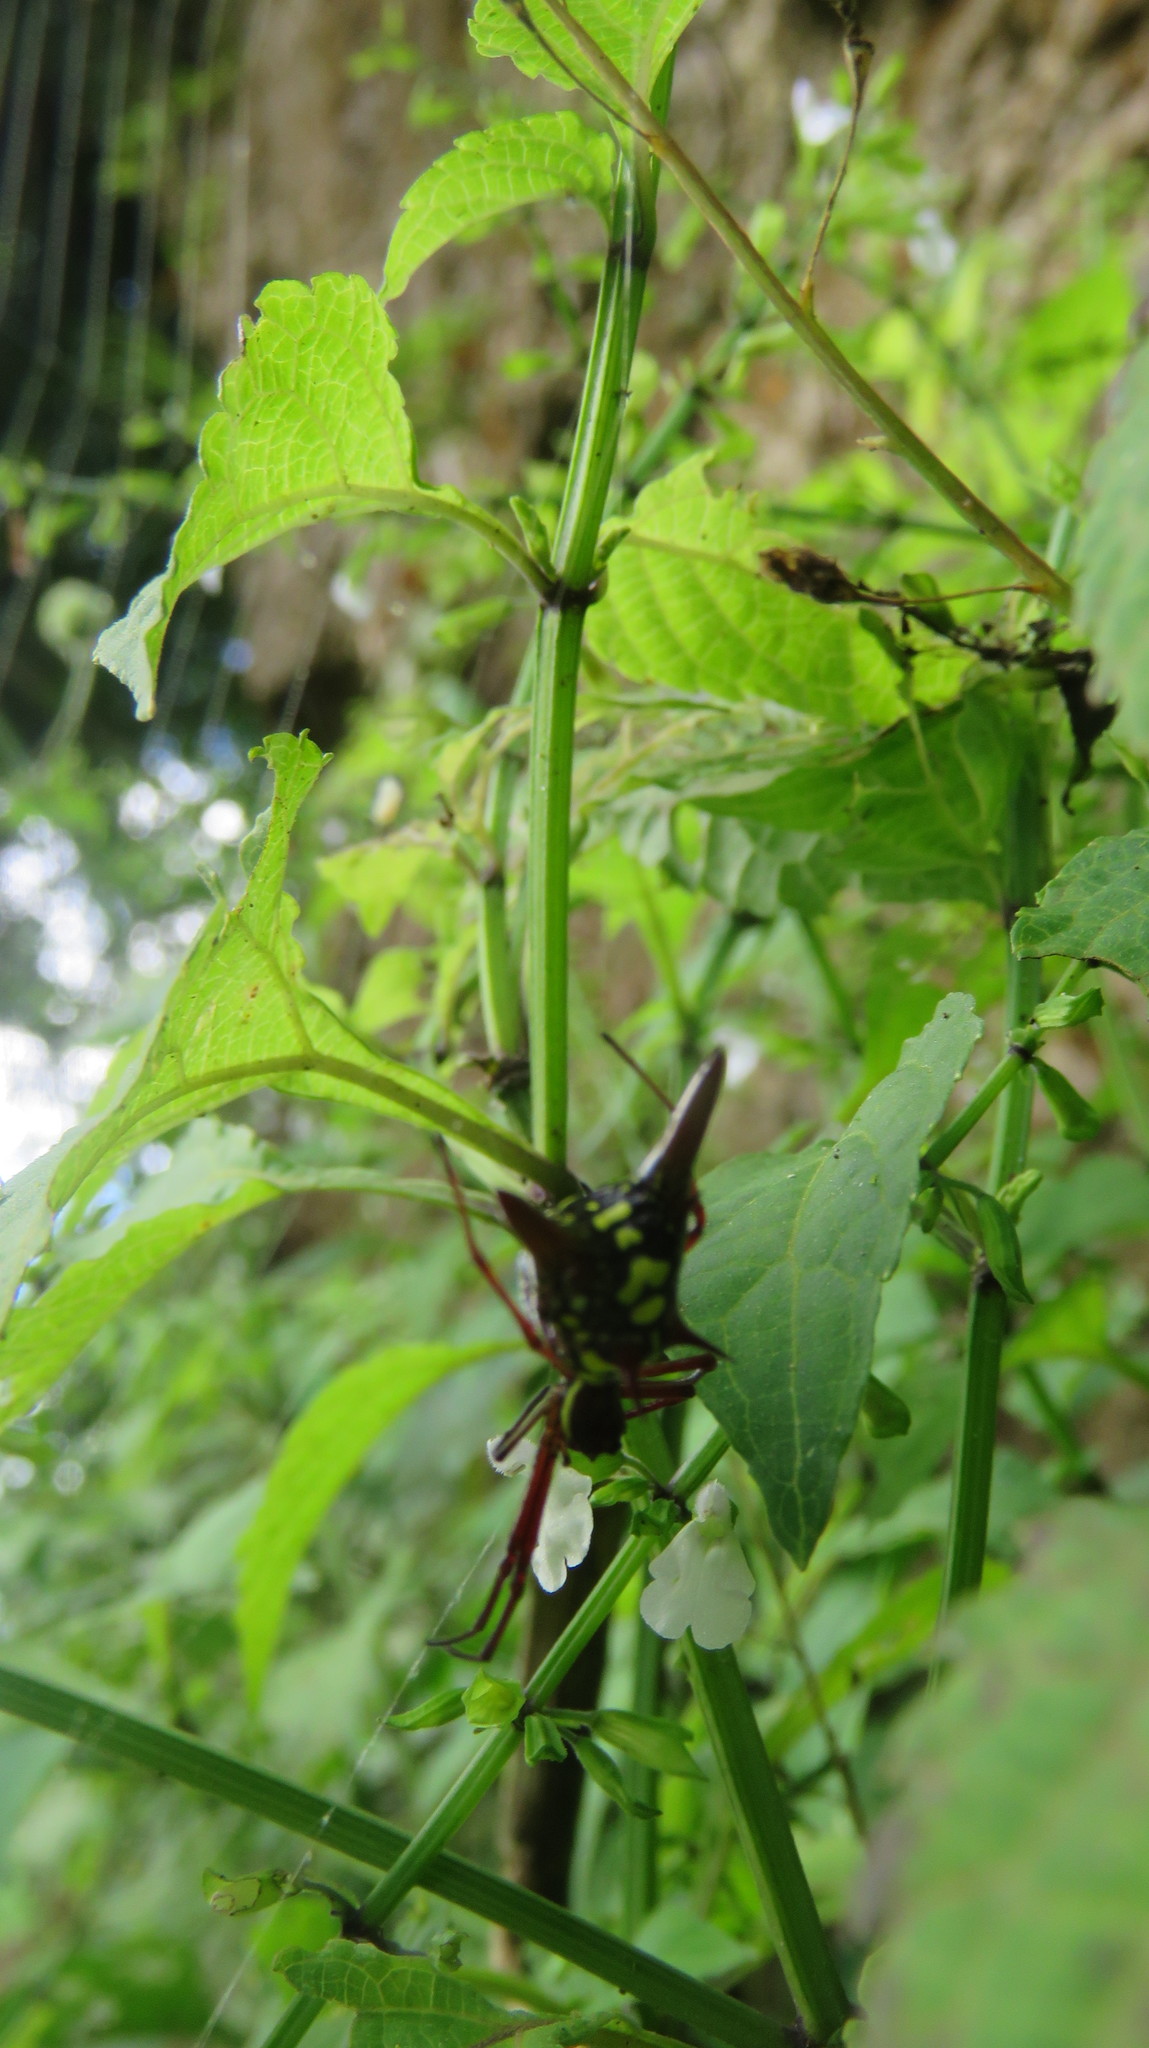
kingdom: Animalia
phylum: Arthropoda
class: Arachnida
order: Araneae
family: Araneidae
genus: Micrathena
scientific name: Micrathena sexspinosa
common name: Orb weavers
